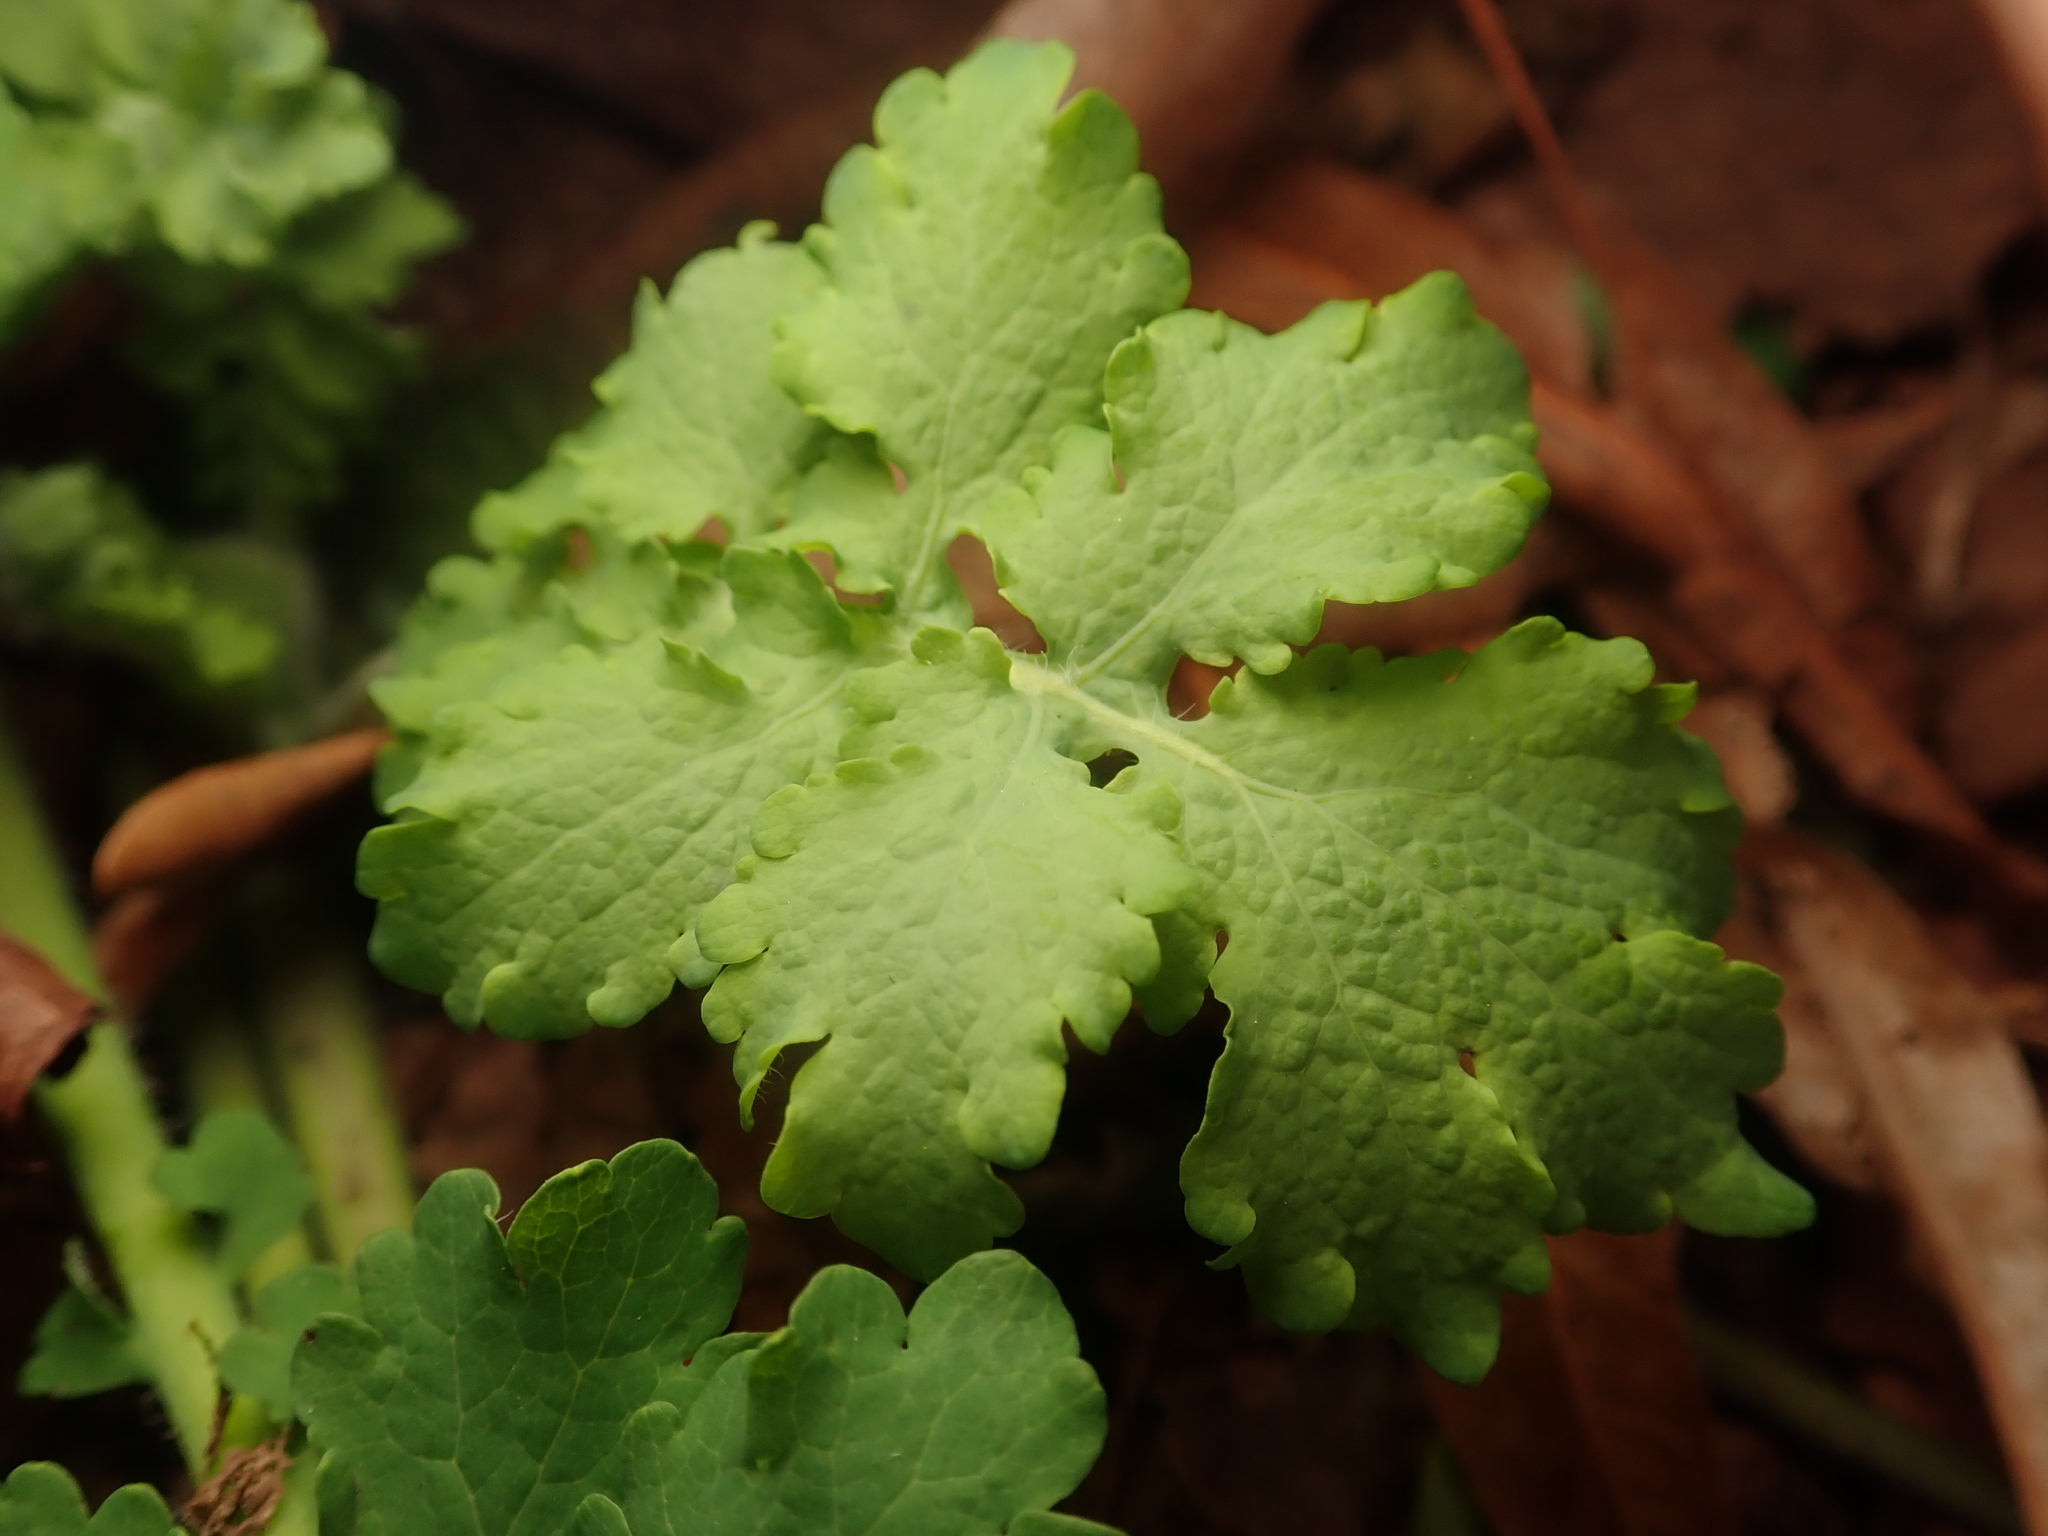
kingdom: Plantae
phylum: Tracheophyta
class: Magnoliopsida
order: Ranunculales
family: Papaveraceae
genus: Chelidonium
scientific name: Chelidonium majus
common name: Greater celandine
